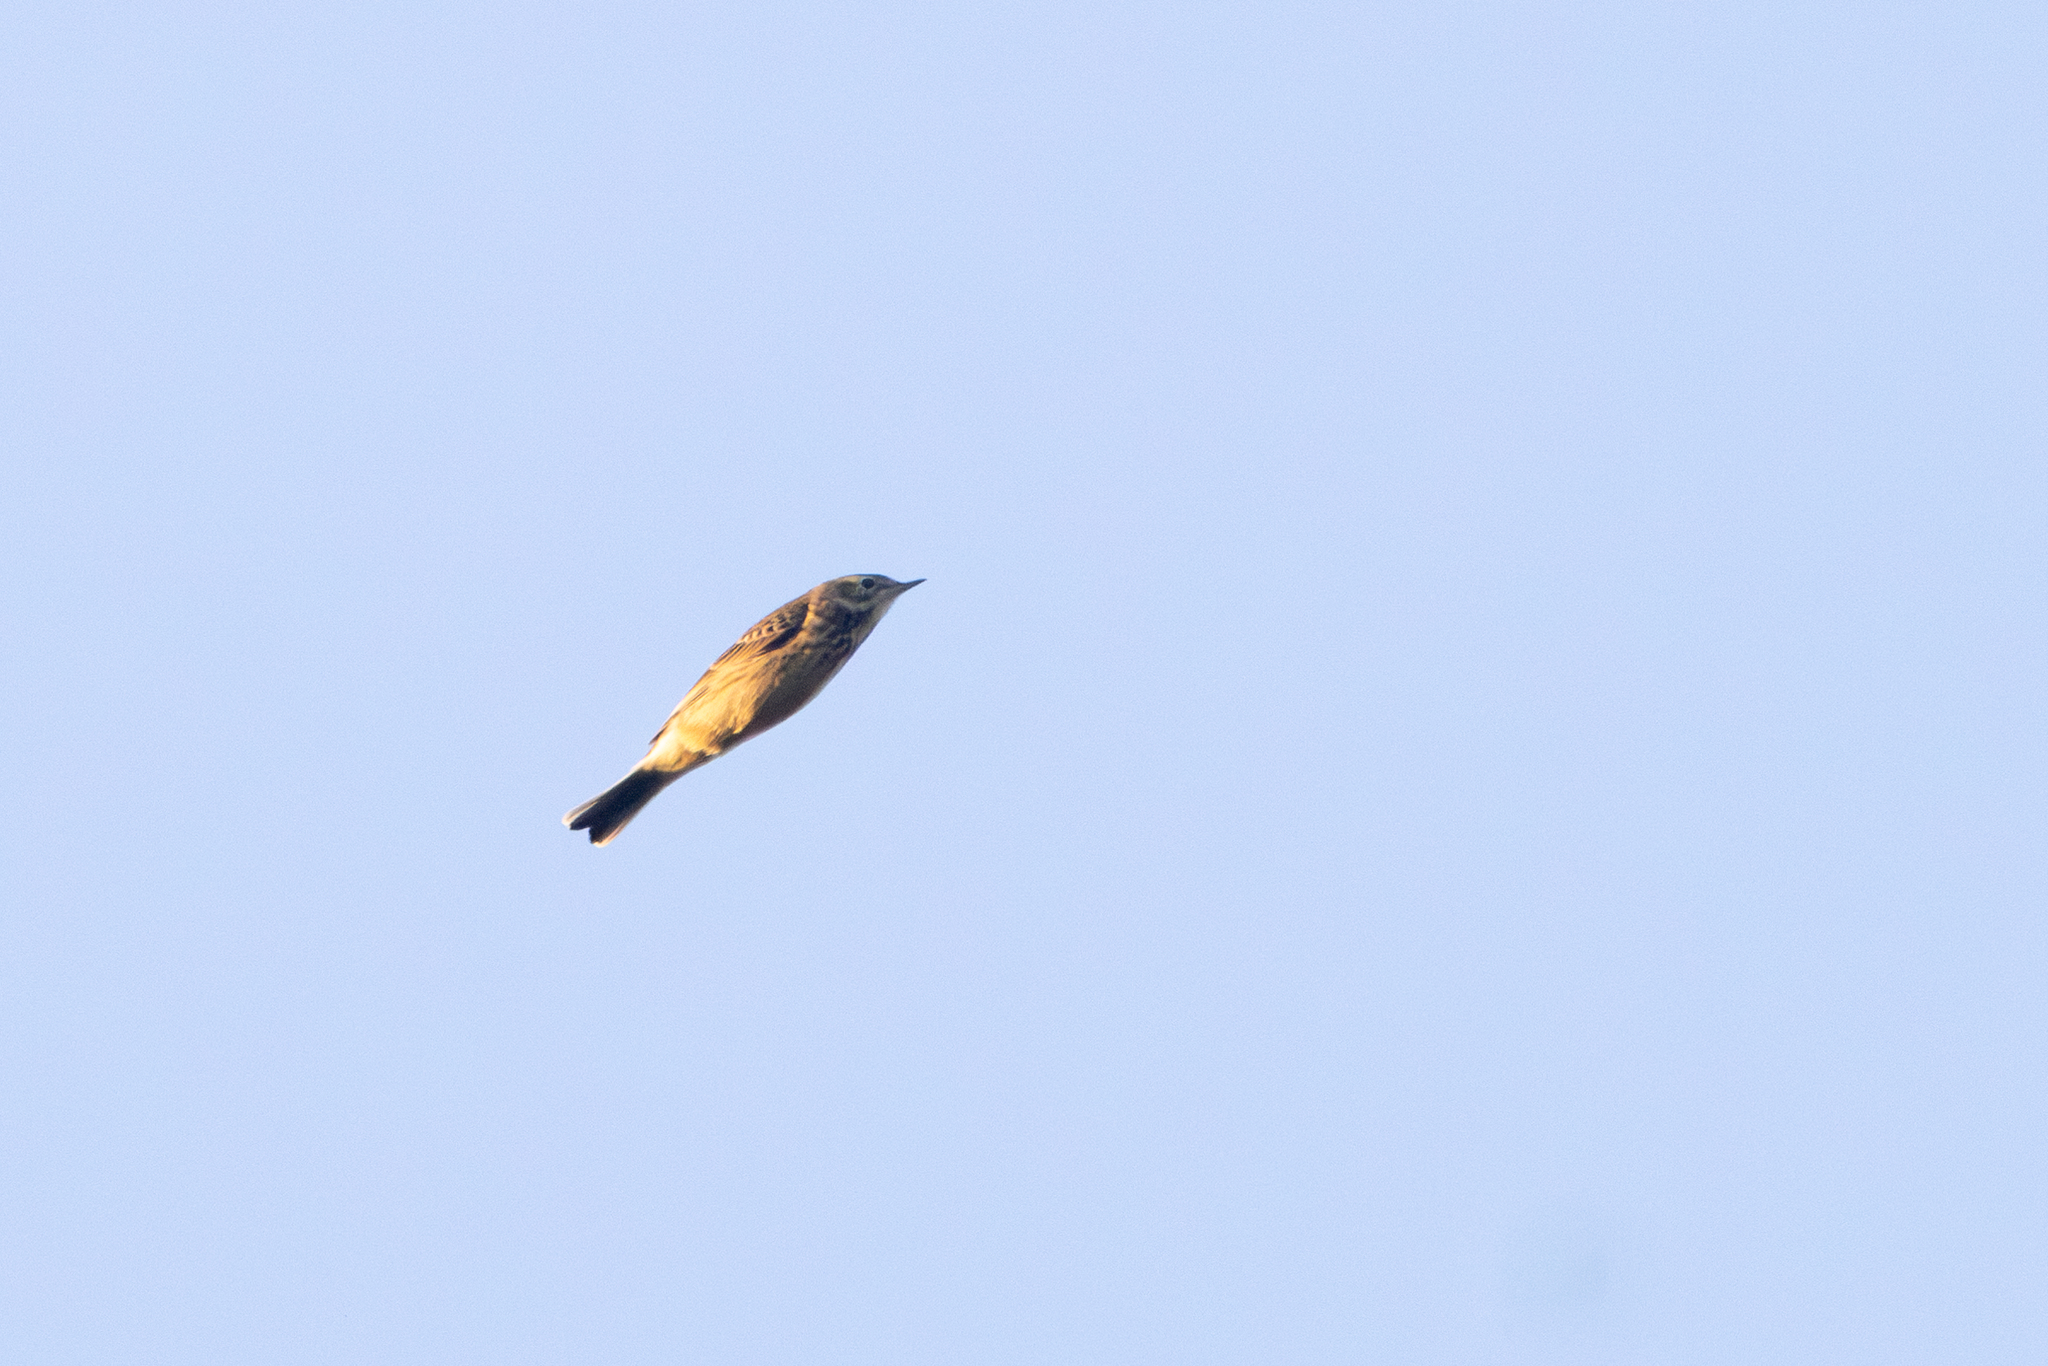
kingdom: Animalia
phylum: Chordata
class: Aves
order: Passeriformes
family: Motacillidae
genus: Anthus
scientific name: Anthus rubescens
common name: Buff-bellied pipit
